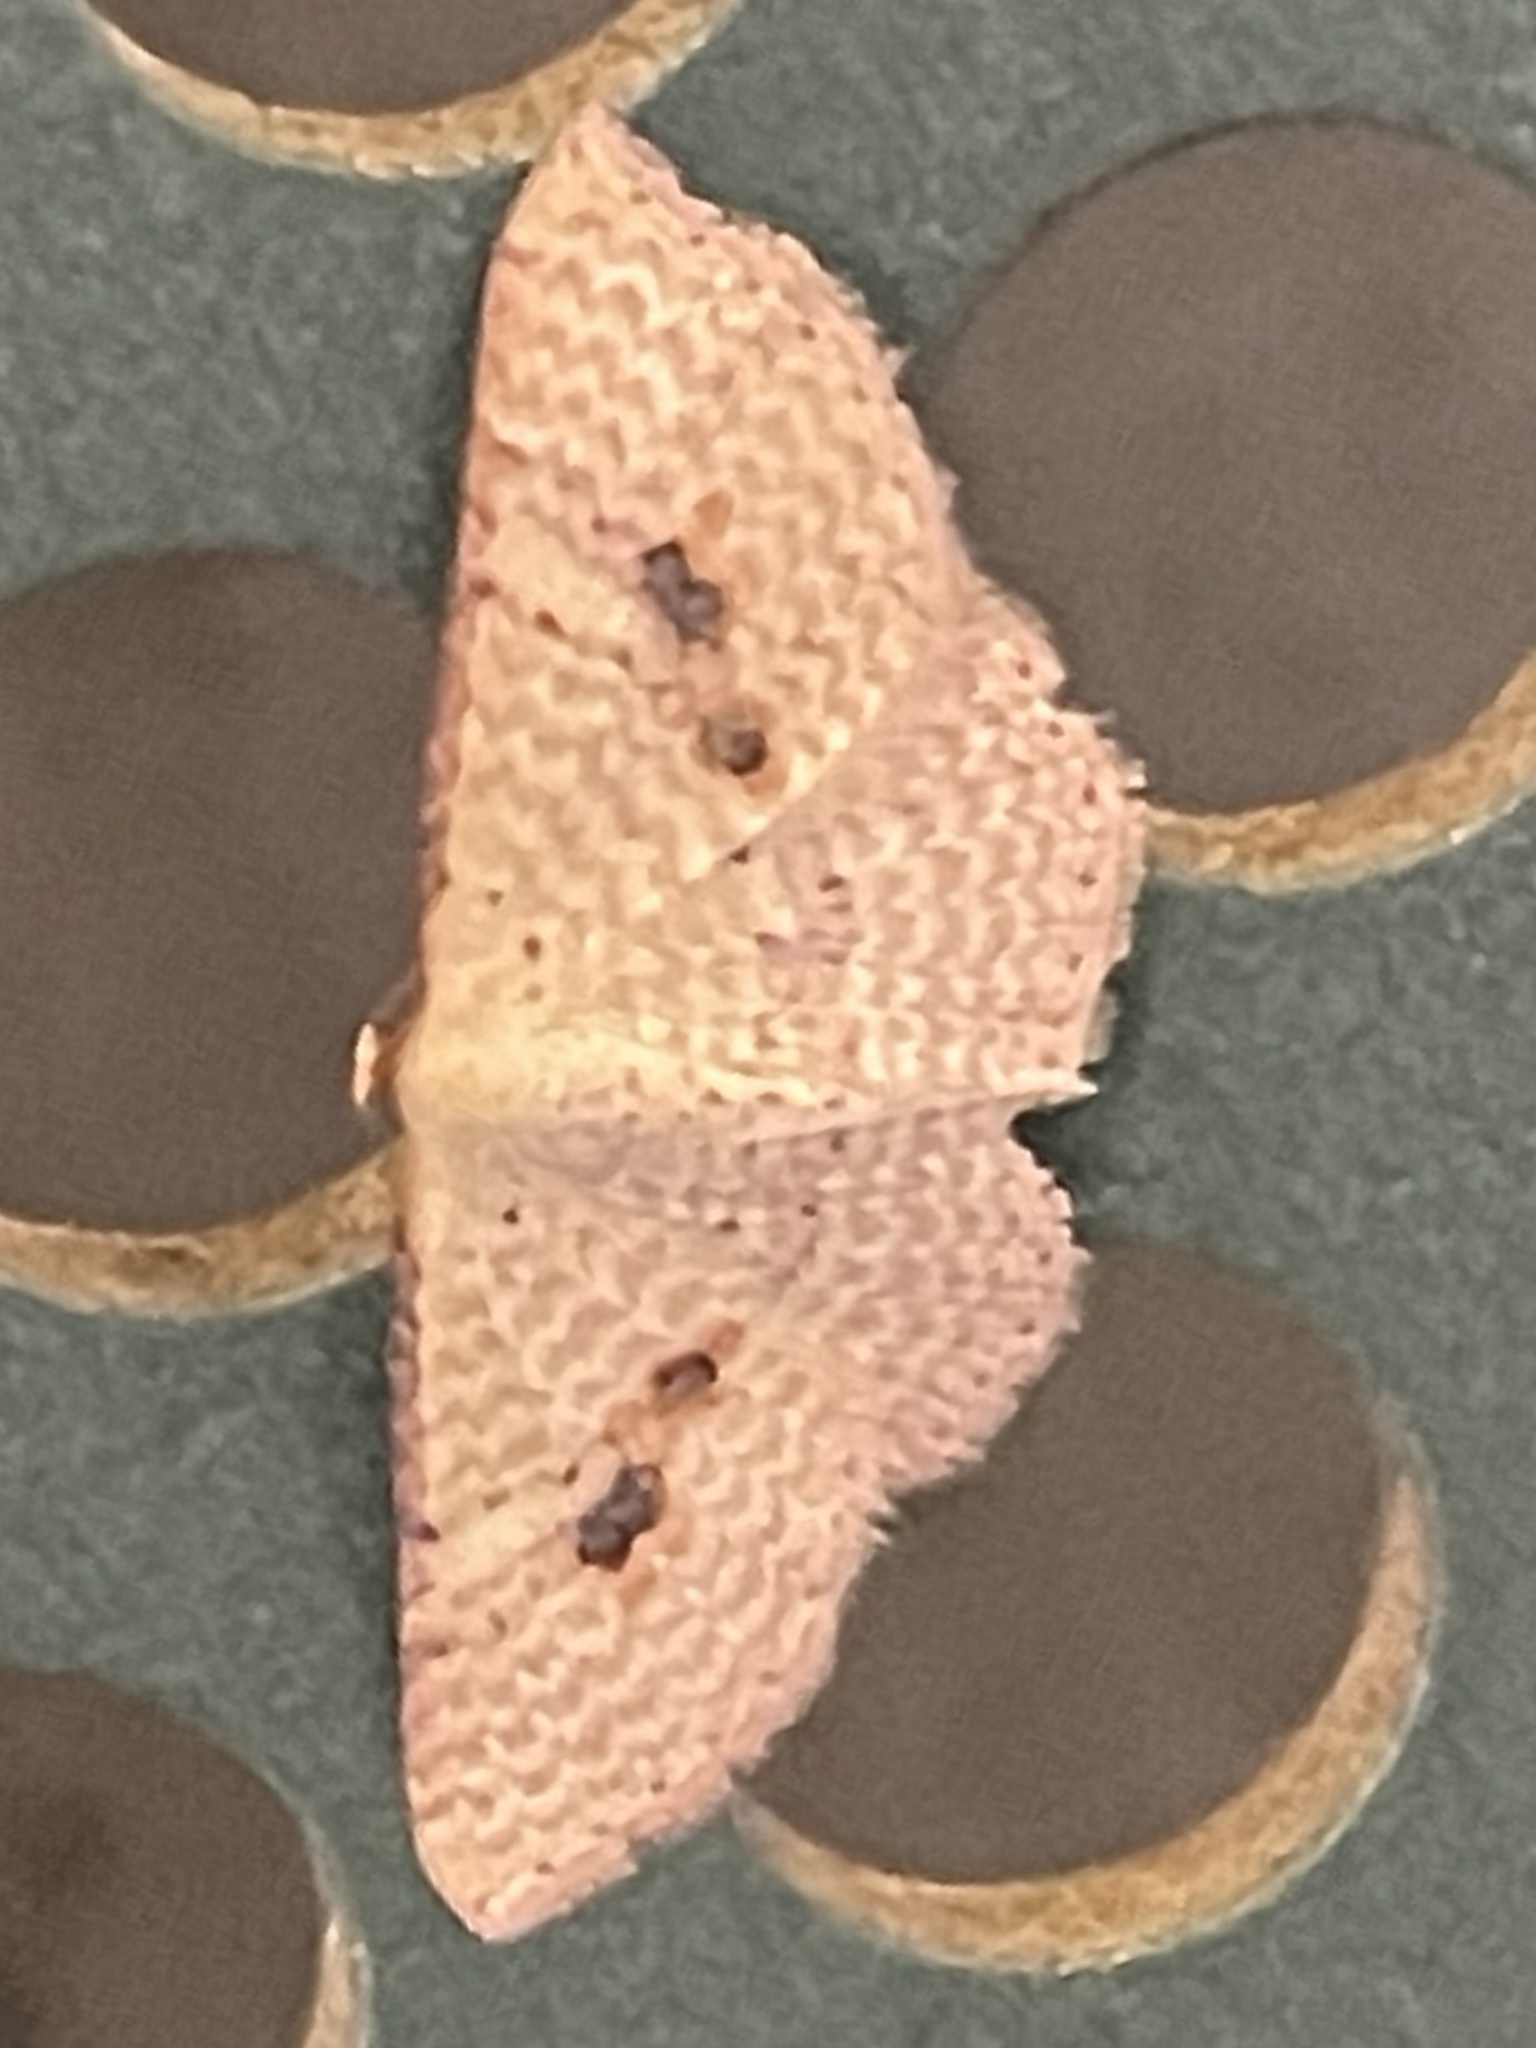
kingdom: Animalia
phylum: Arthropoda
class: Insecta
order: Lepidoptera
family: Geometridae
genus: Epicyme
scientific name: Epicyme rubropunctaria
